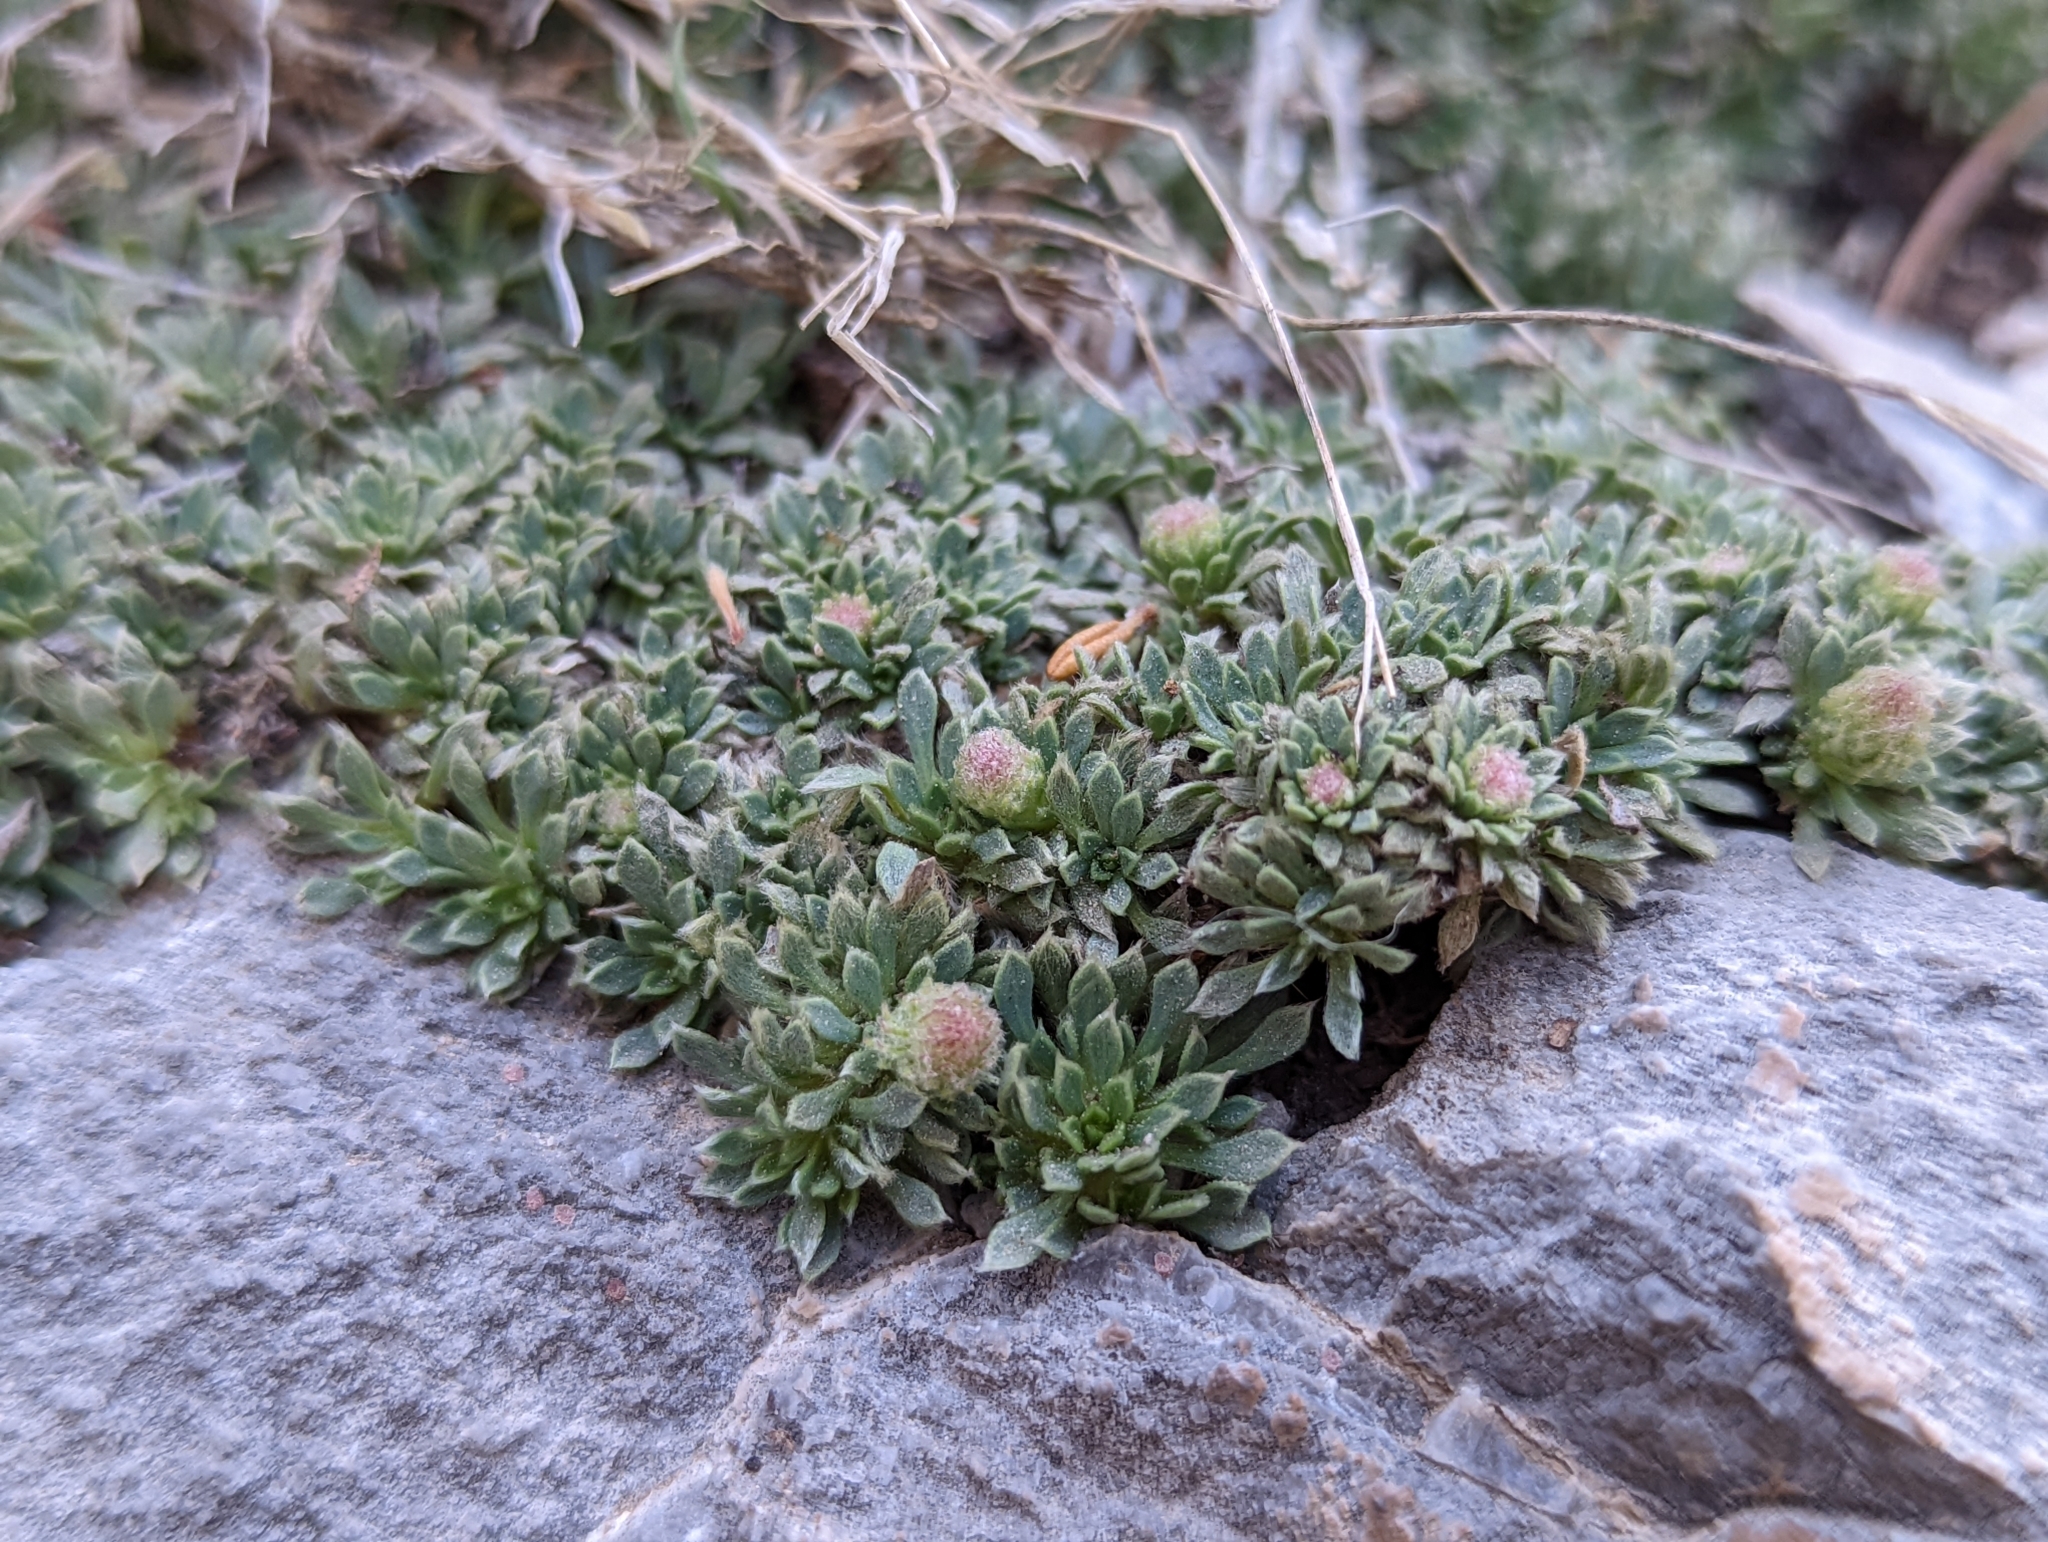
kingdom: Plantae
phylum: Tracheophyta
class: Magnoliopsida
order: Rosales
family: Rosaceae
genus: Petrophytum
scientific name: Petrophytum caespitosum
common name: Mat rockspirea
